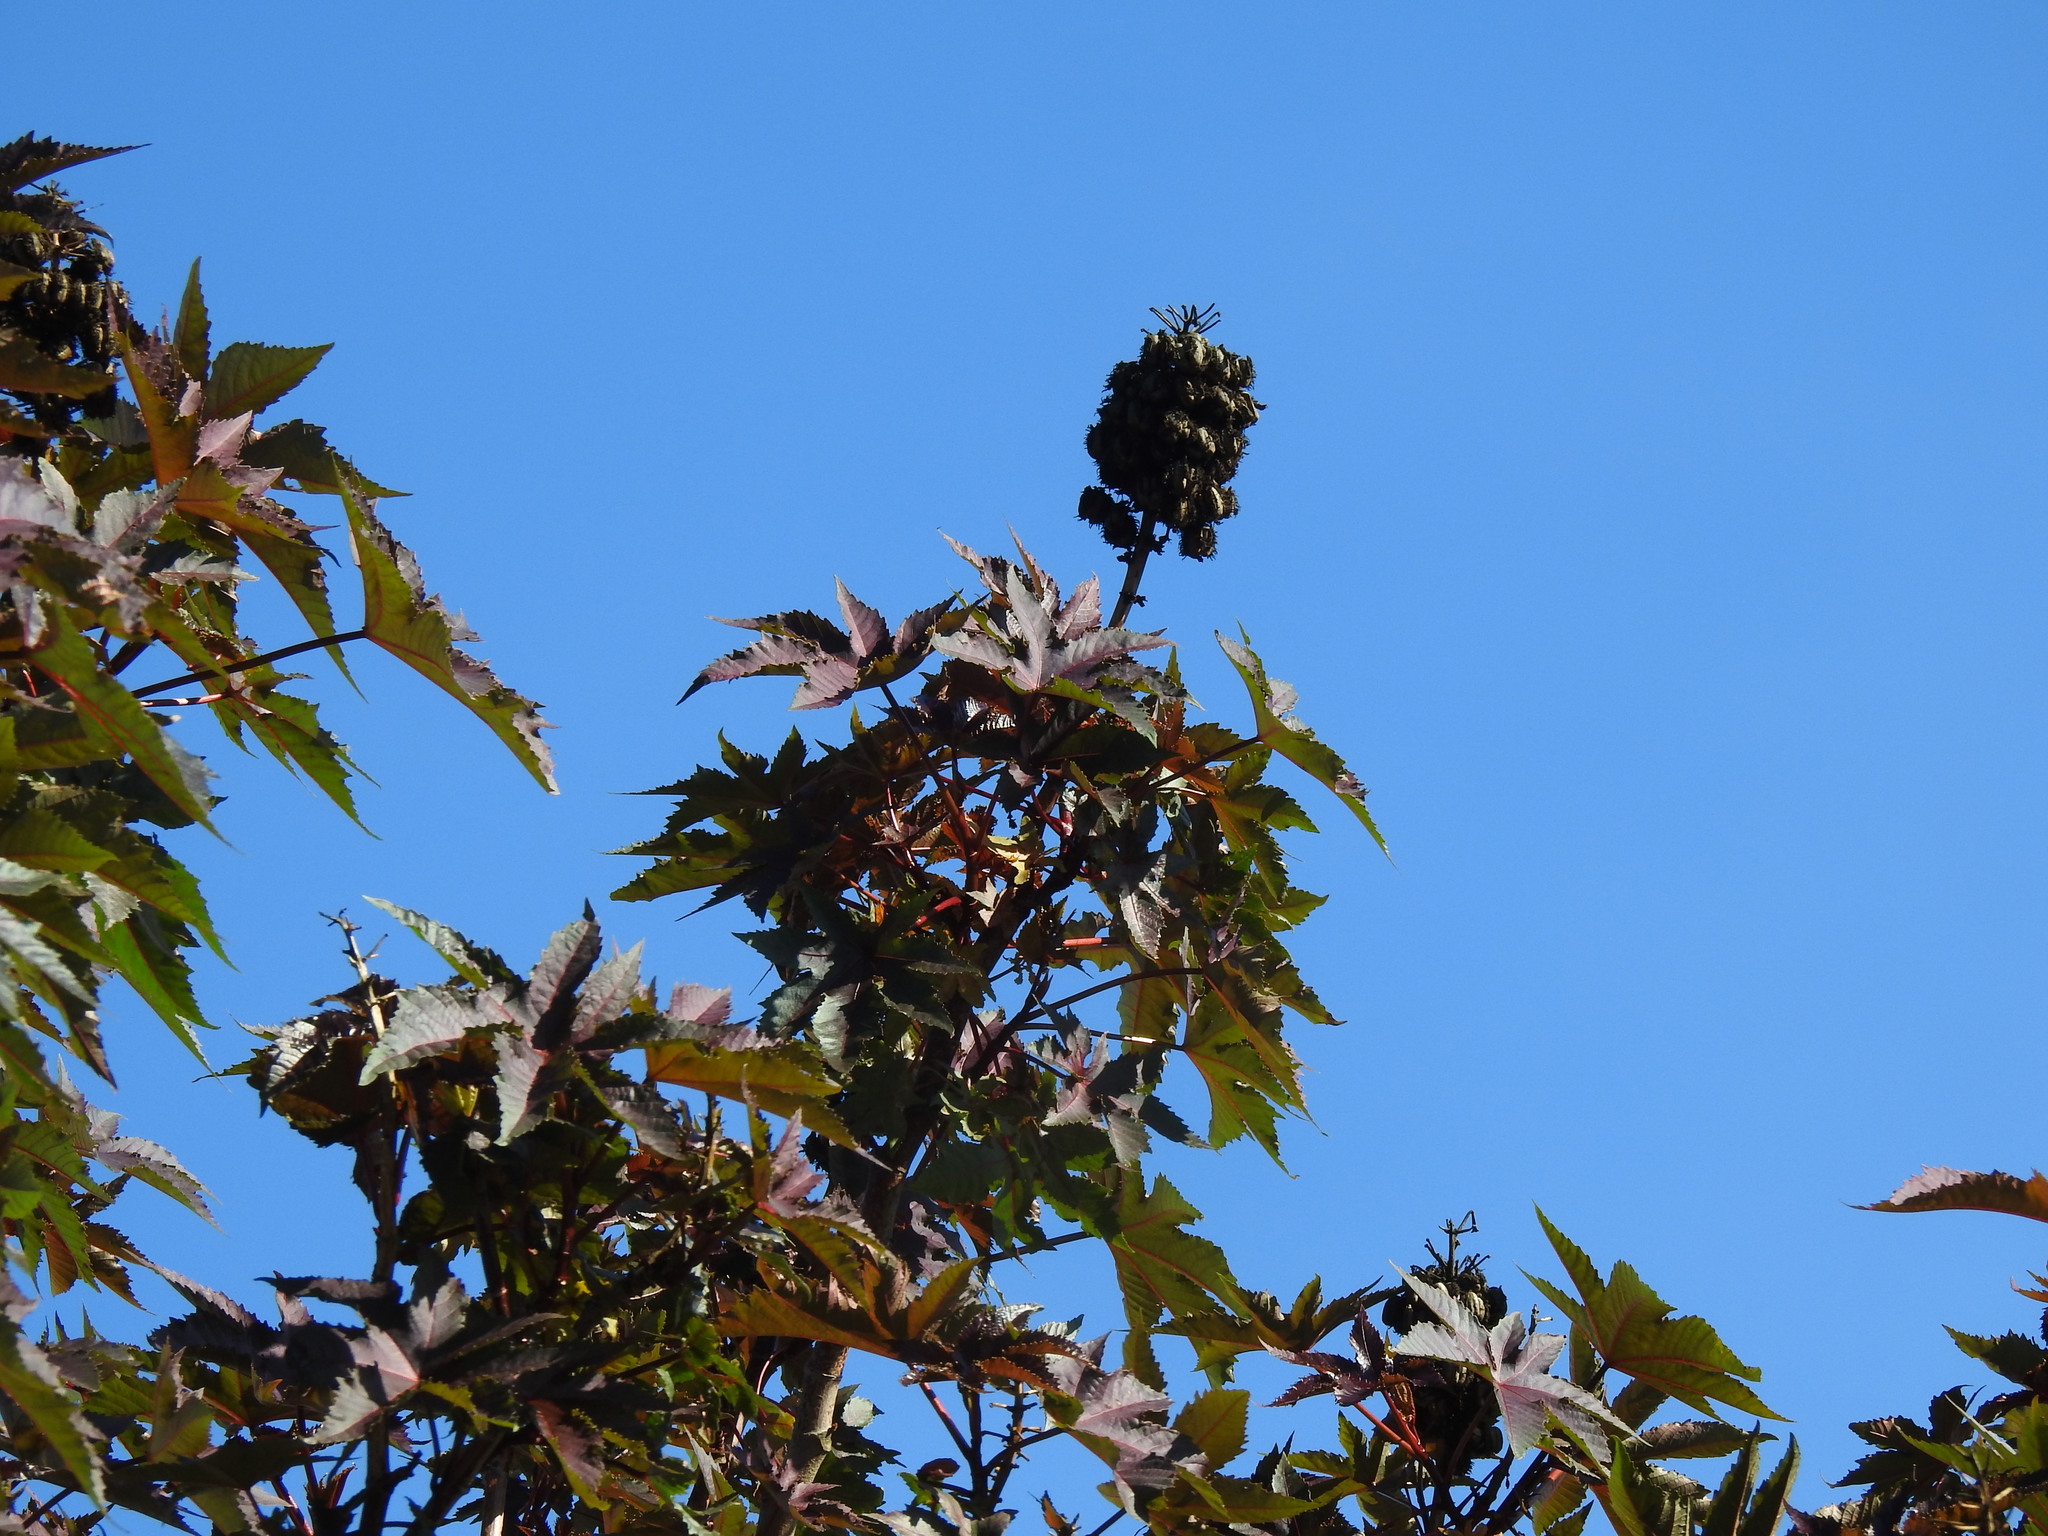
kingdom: Plantae
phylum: Tracheophyta
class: Magnoliopsida
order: Malpighiales
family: Euphorbiaceae
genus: Ricinus
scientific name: Ricinus communis
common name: Castor-oil-plant
